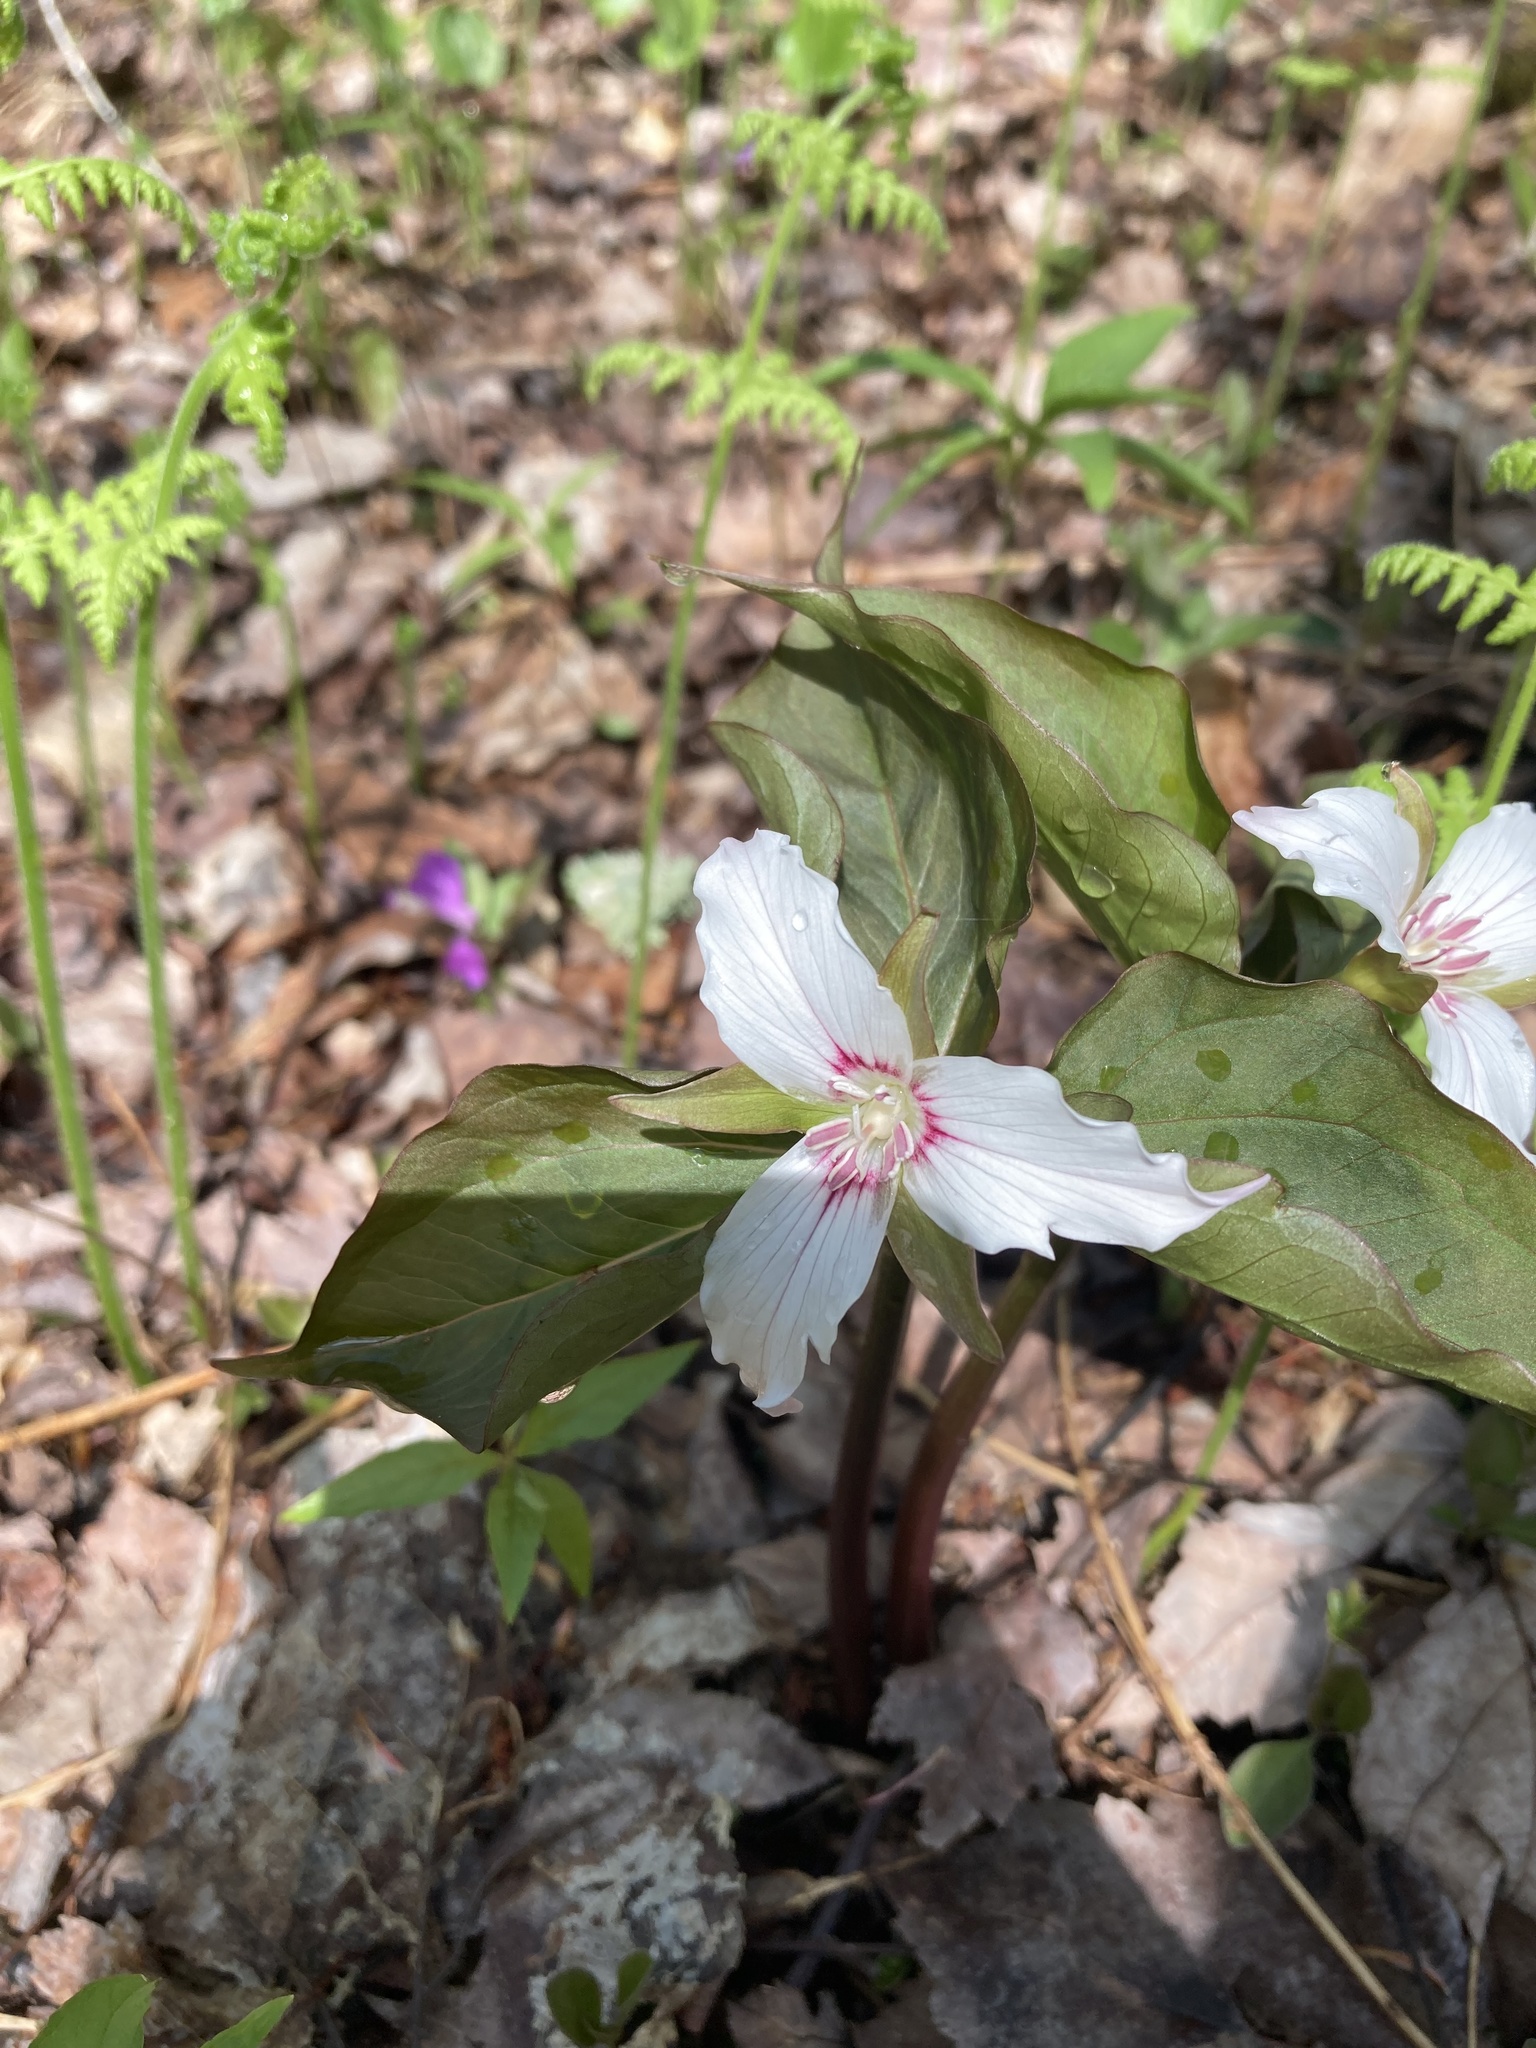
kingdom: Plantae
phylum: Tracheophyta
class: Liliopsida
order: Liliales
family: Melanthiaceae
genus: Trillium
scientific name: Trillium undulatum
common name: Paint trillium
